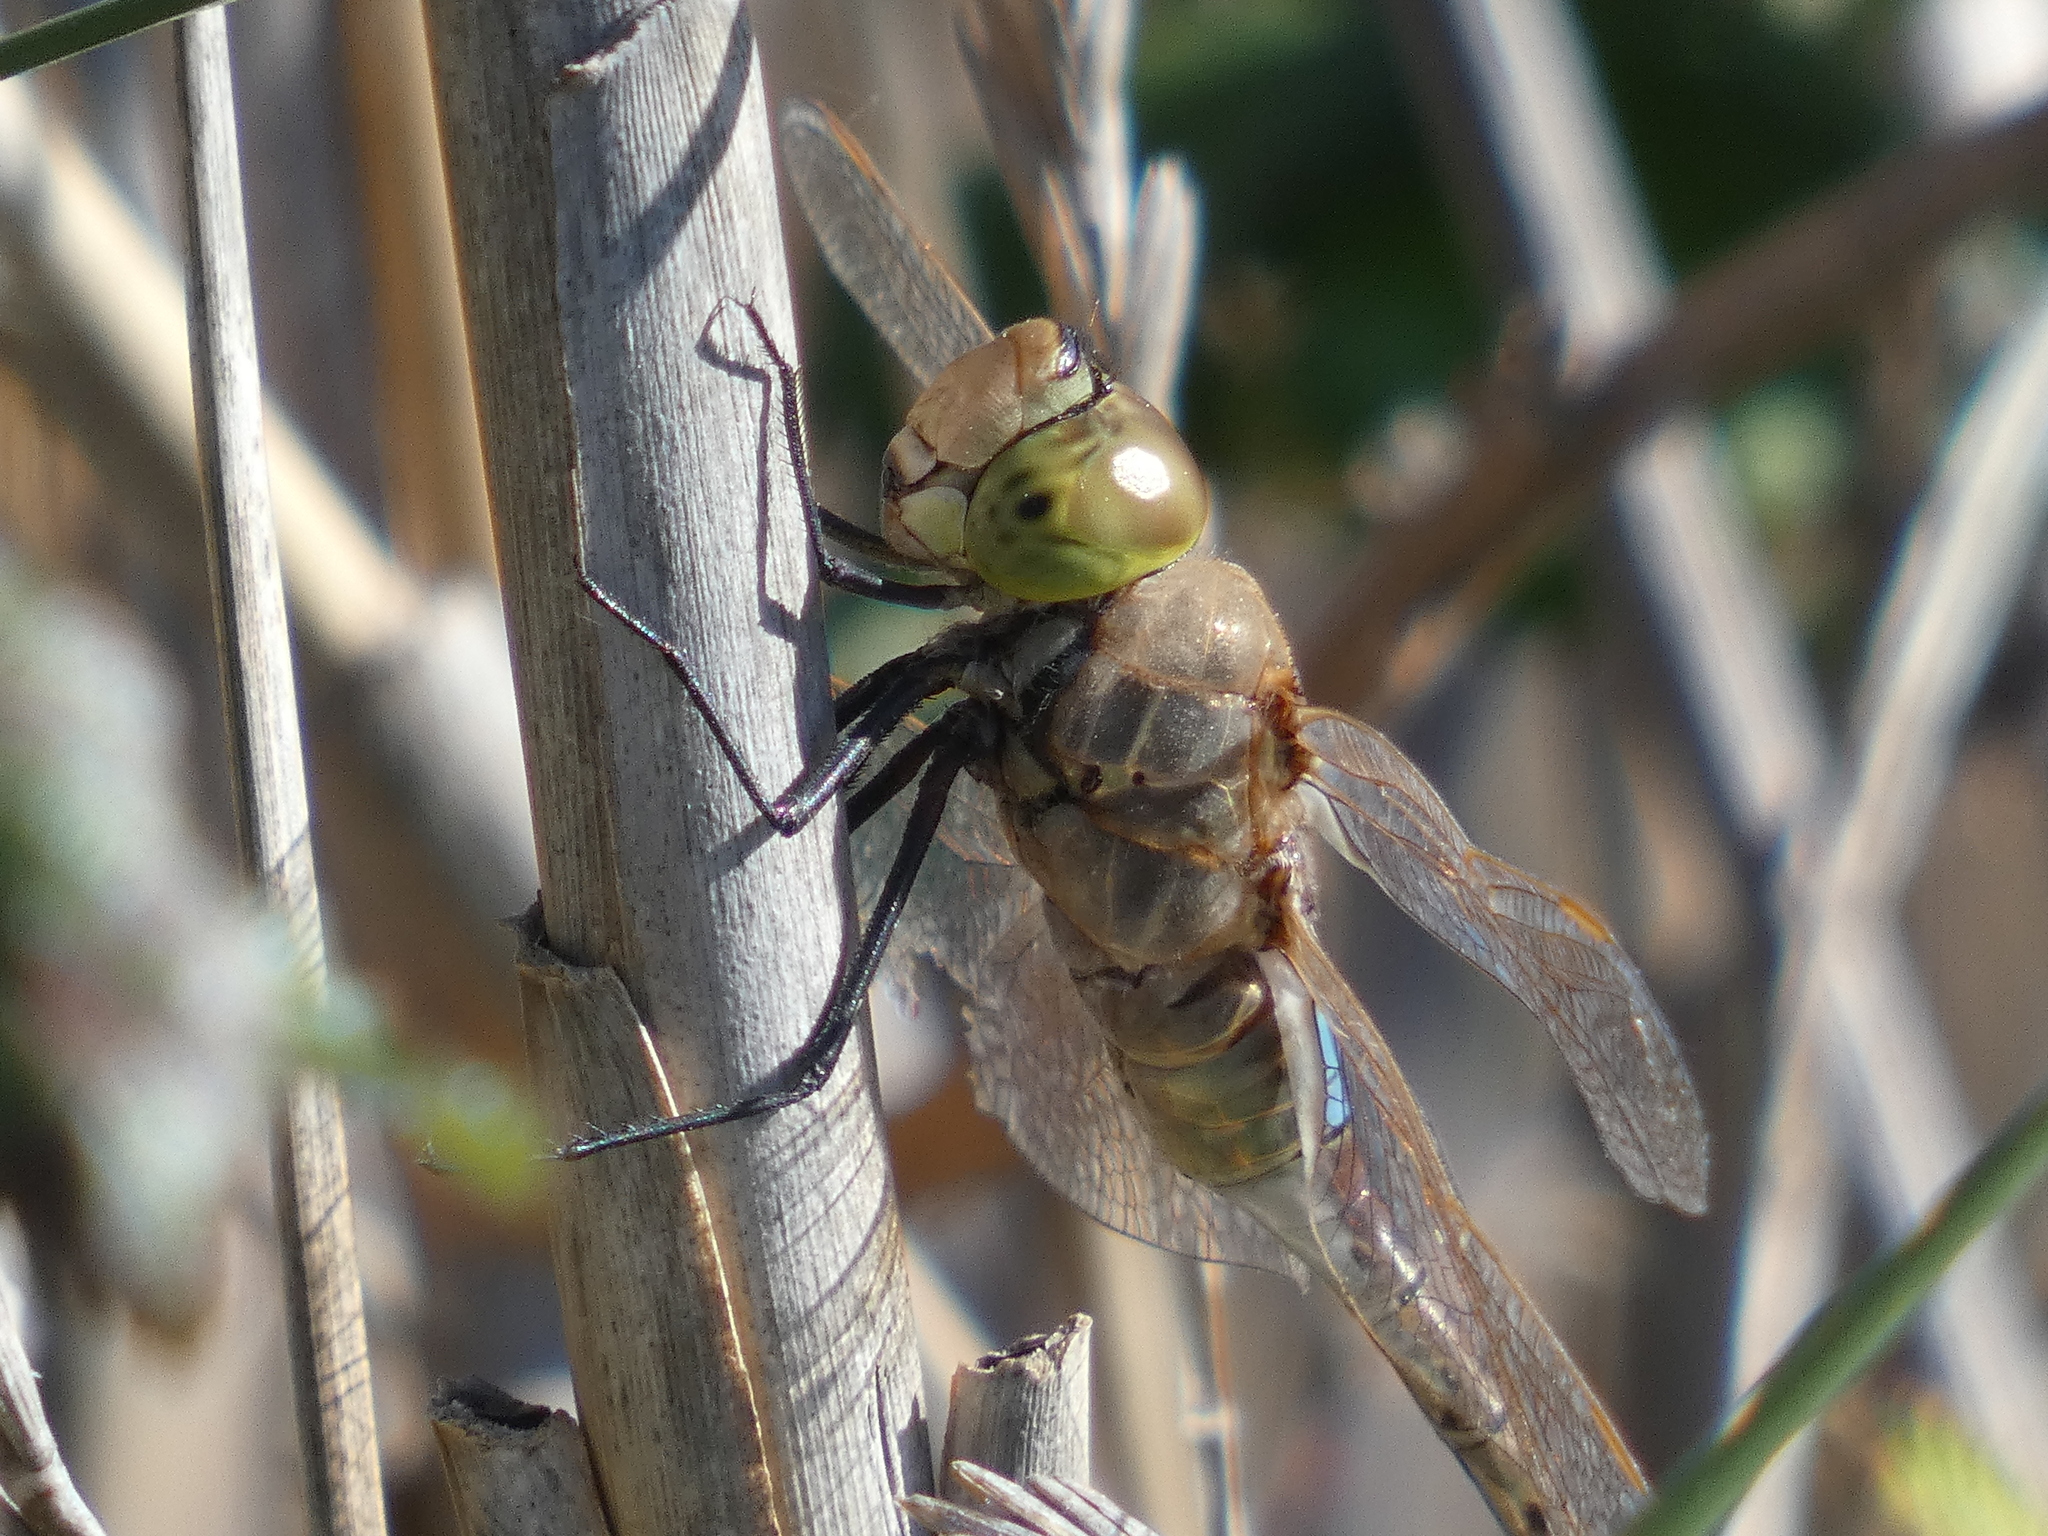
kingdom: Animalia
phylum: Arthropoda
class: Insecta
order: Odonata
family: Aeshnidae
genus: Anax
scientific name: Anax ephippiger
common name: Vagrant emperor
